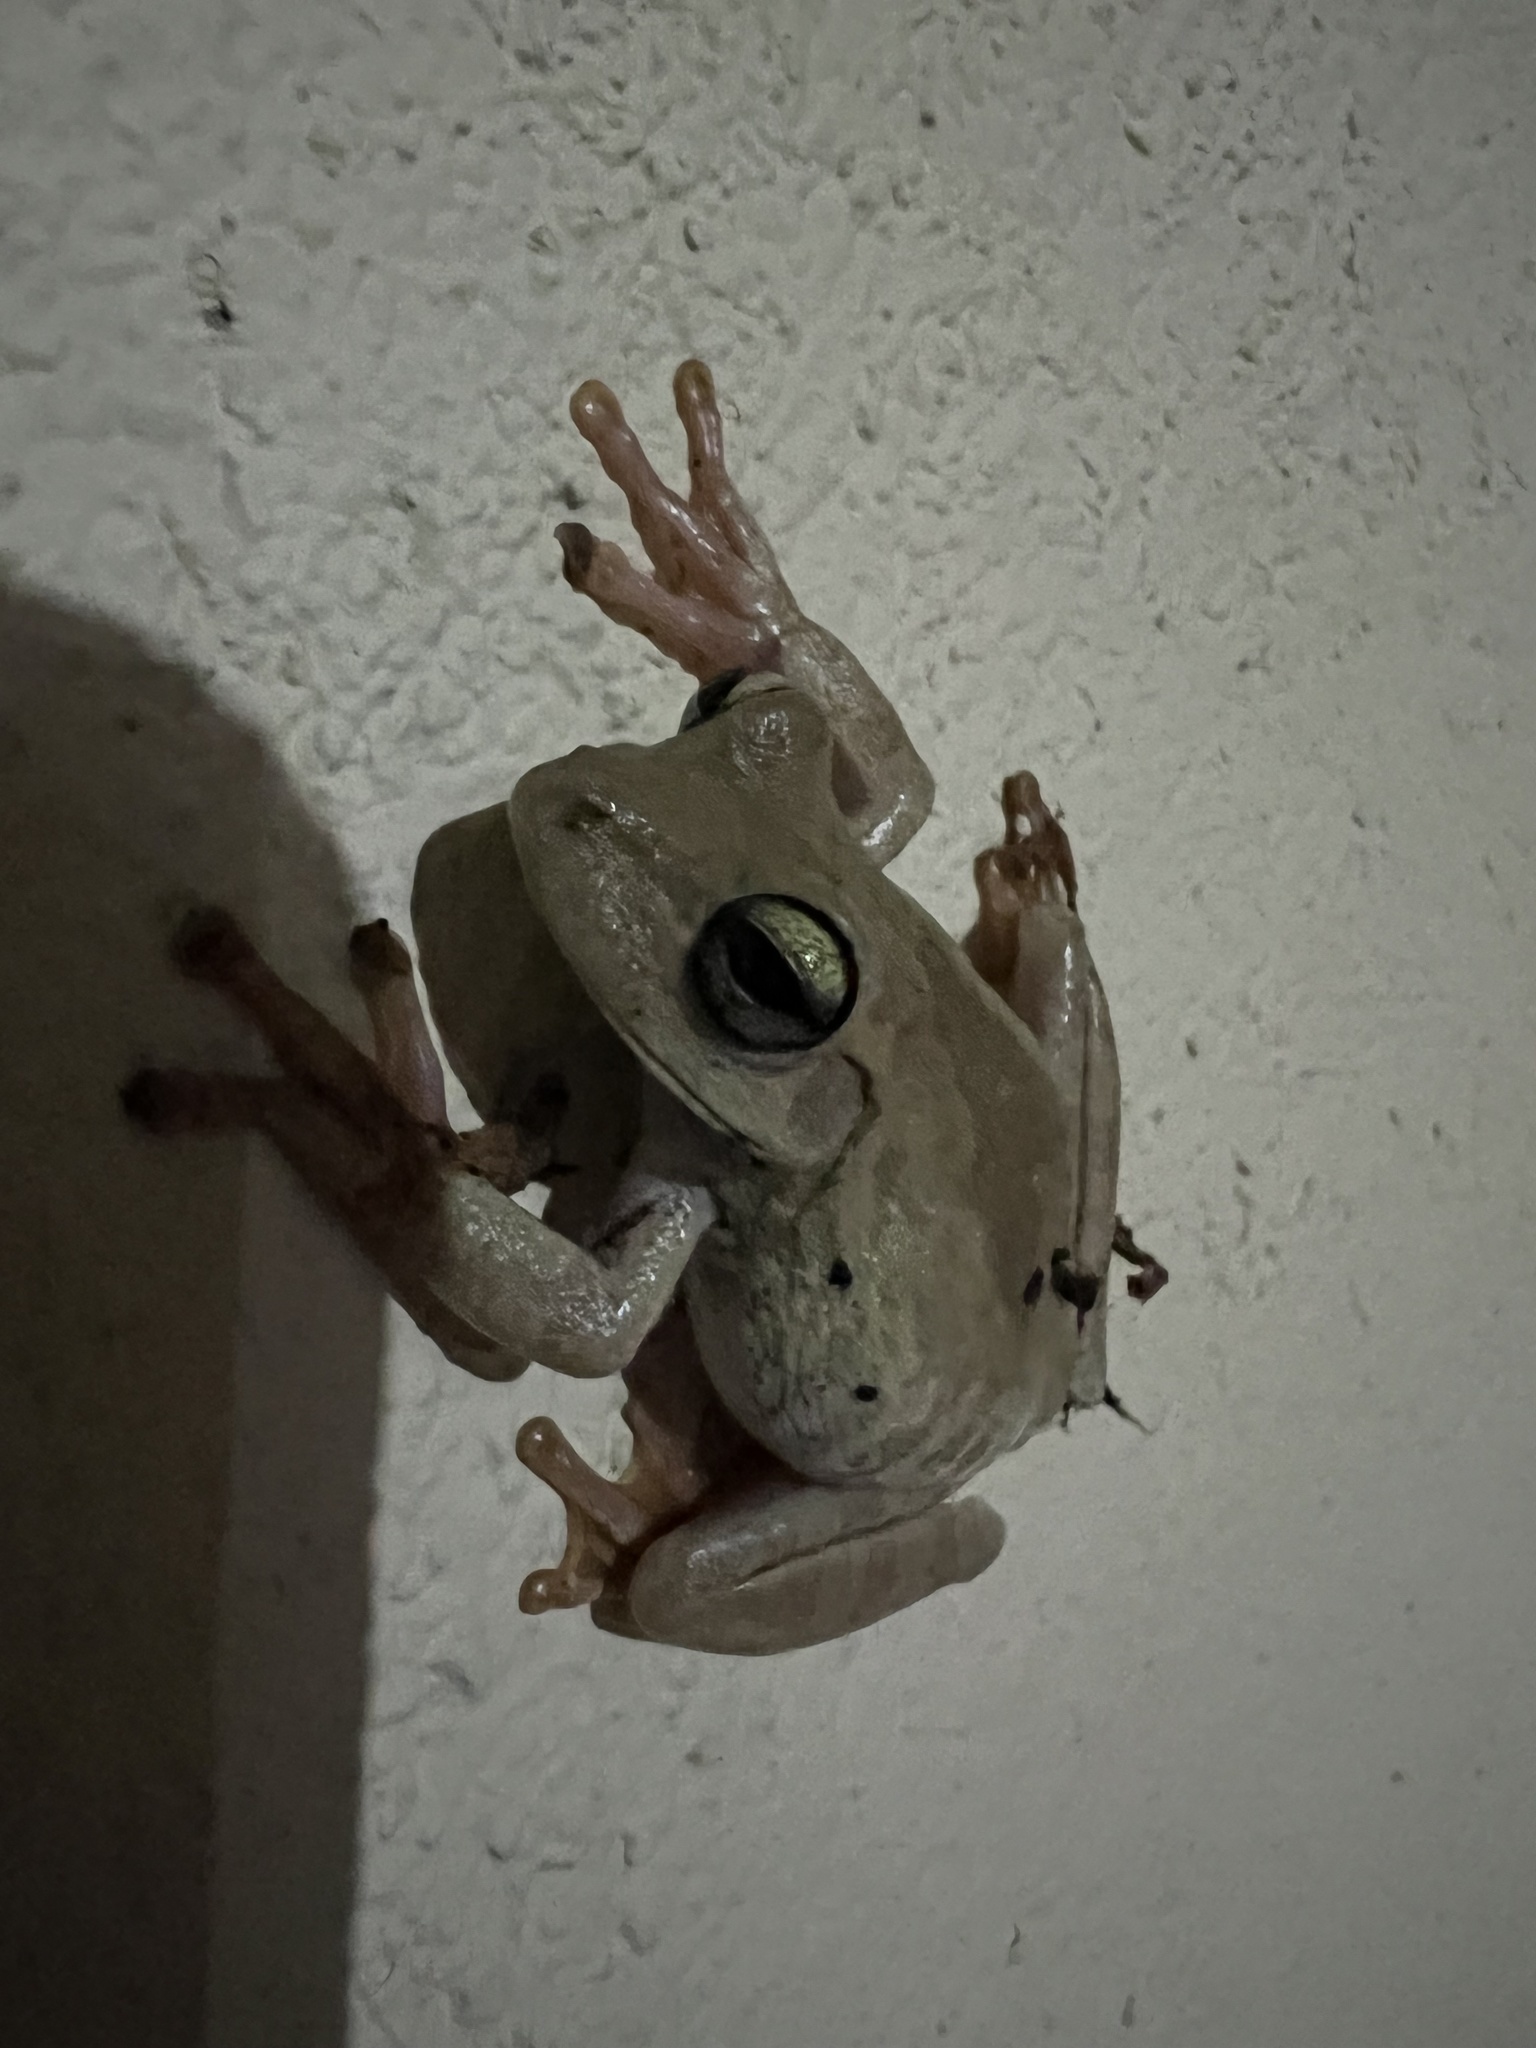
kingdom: Animalia
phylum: Chordata
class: Amphibia
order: Anura
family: Hylidae
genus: Boana
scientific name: Boana platanera
